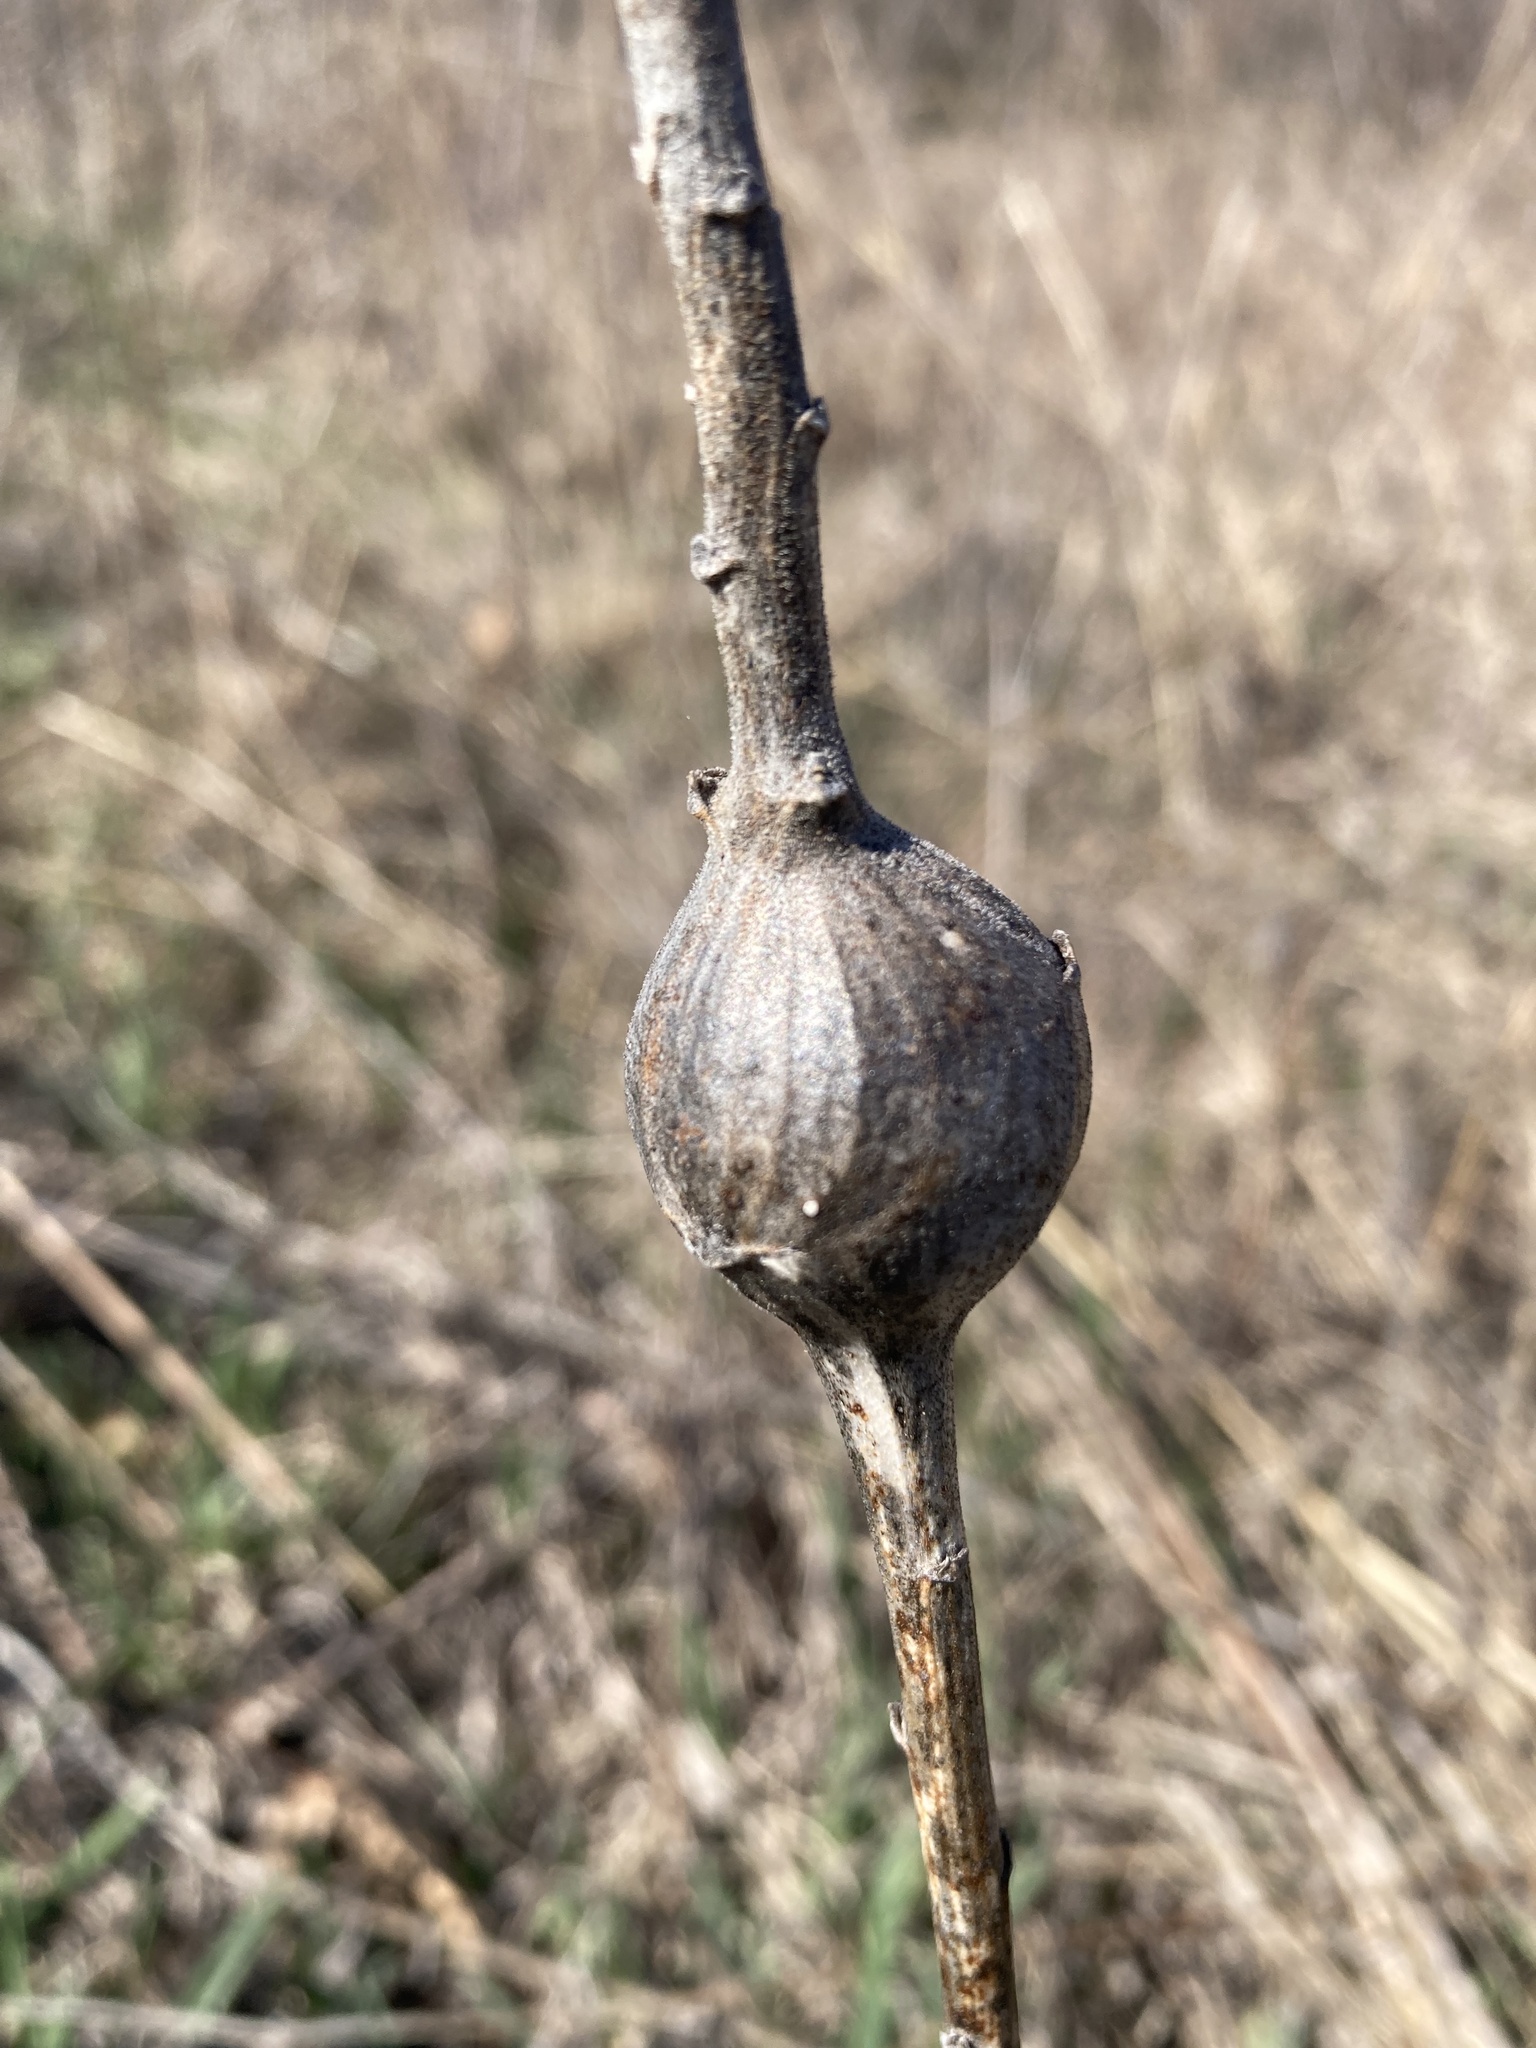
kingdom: Animalia
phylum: Arthropoda
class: Insecta
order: Diptera
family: Tephritidae
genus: Eurosta
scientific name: Eurosta solidaginis
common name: Goldenrod gall fly
